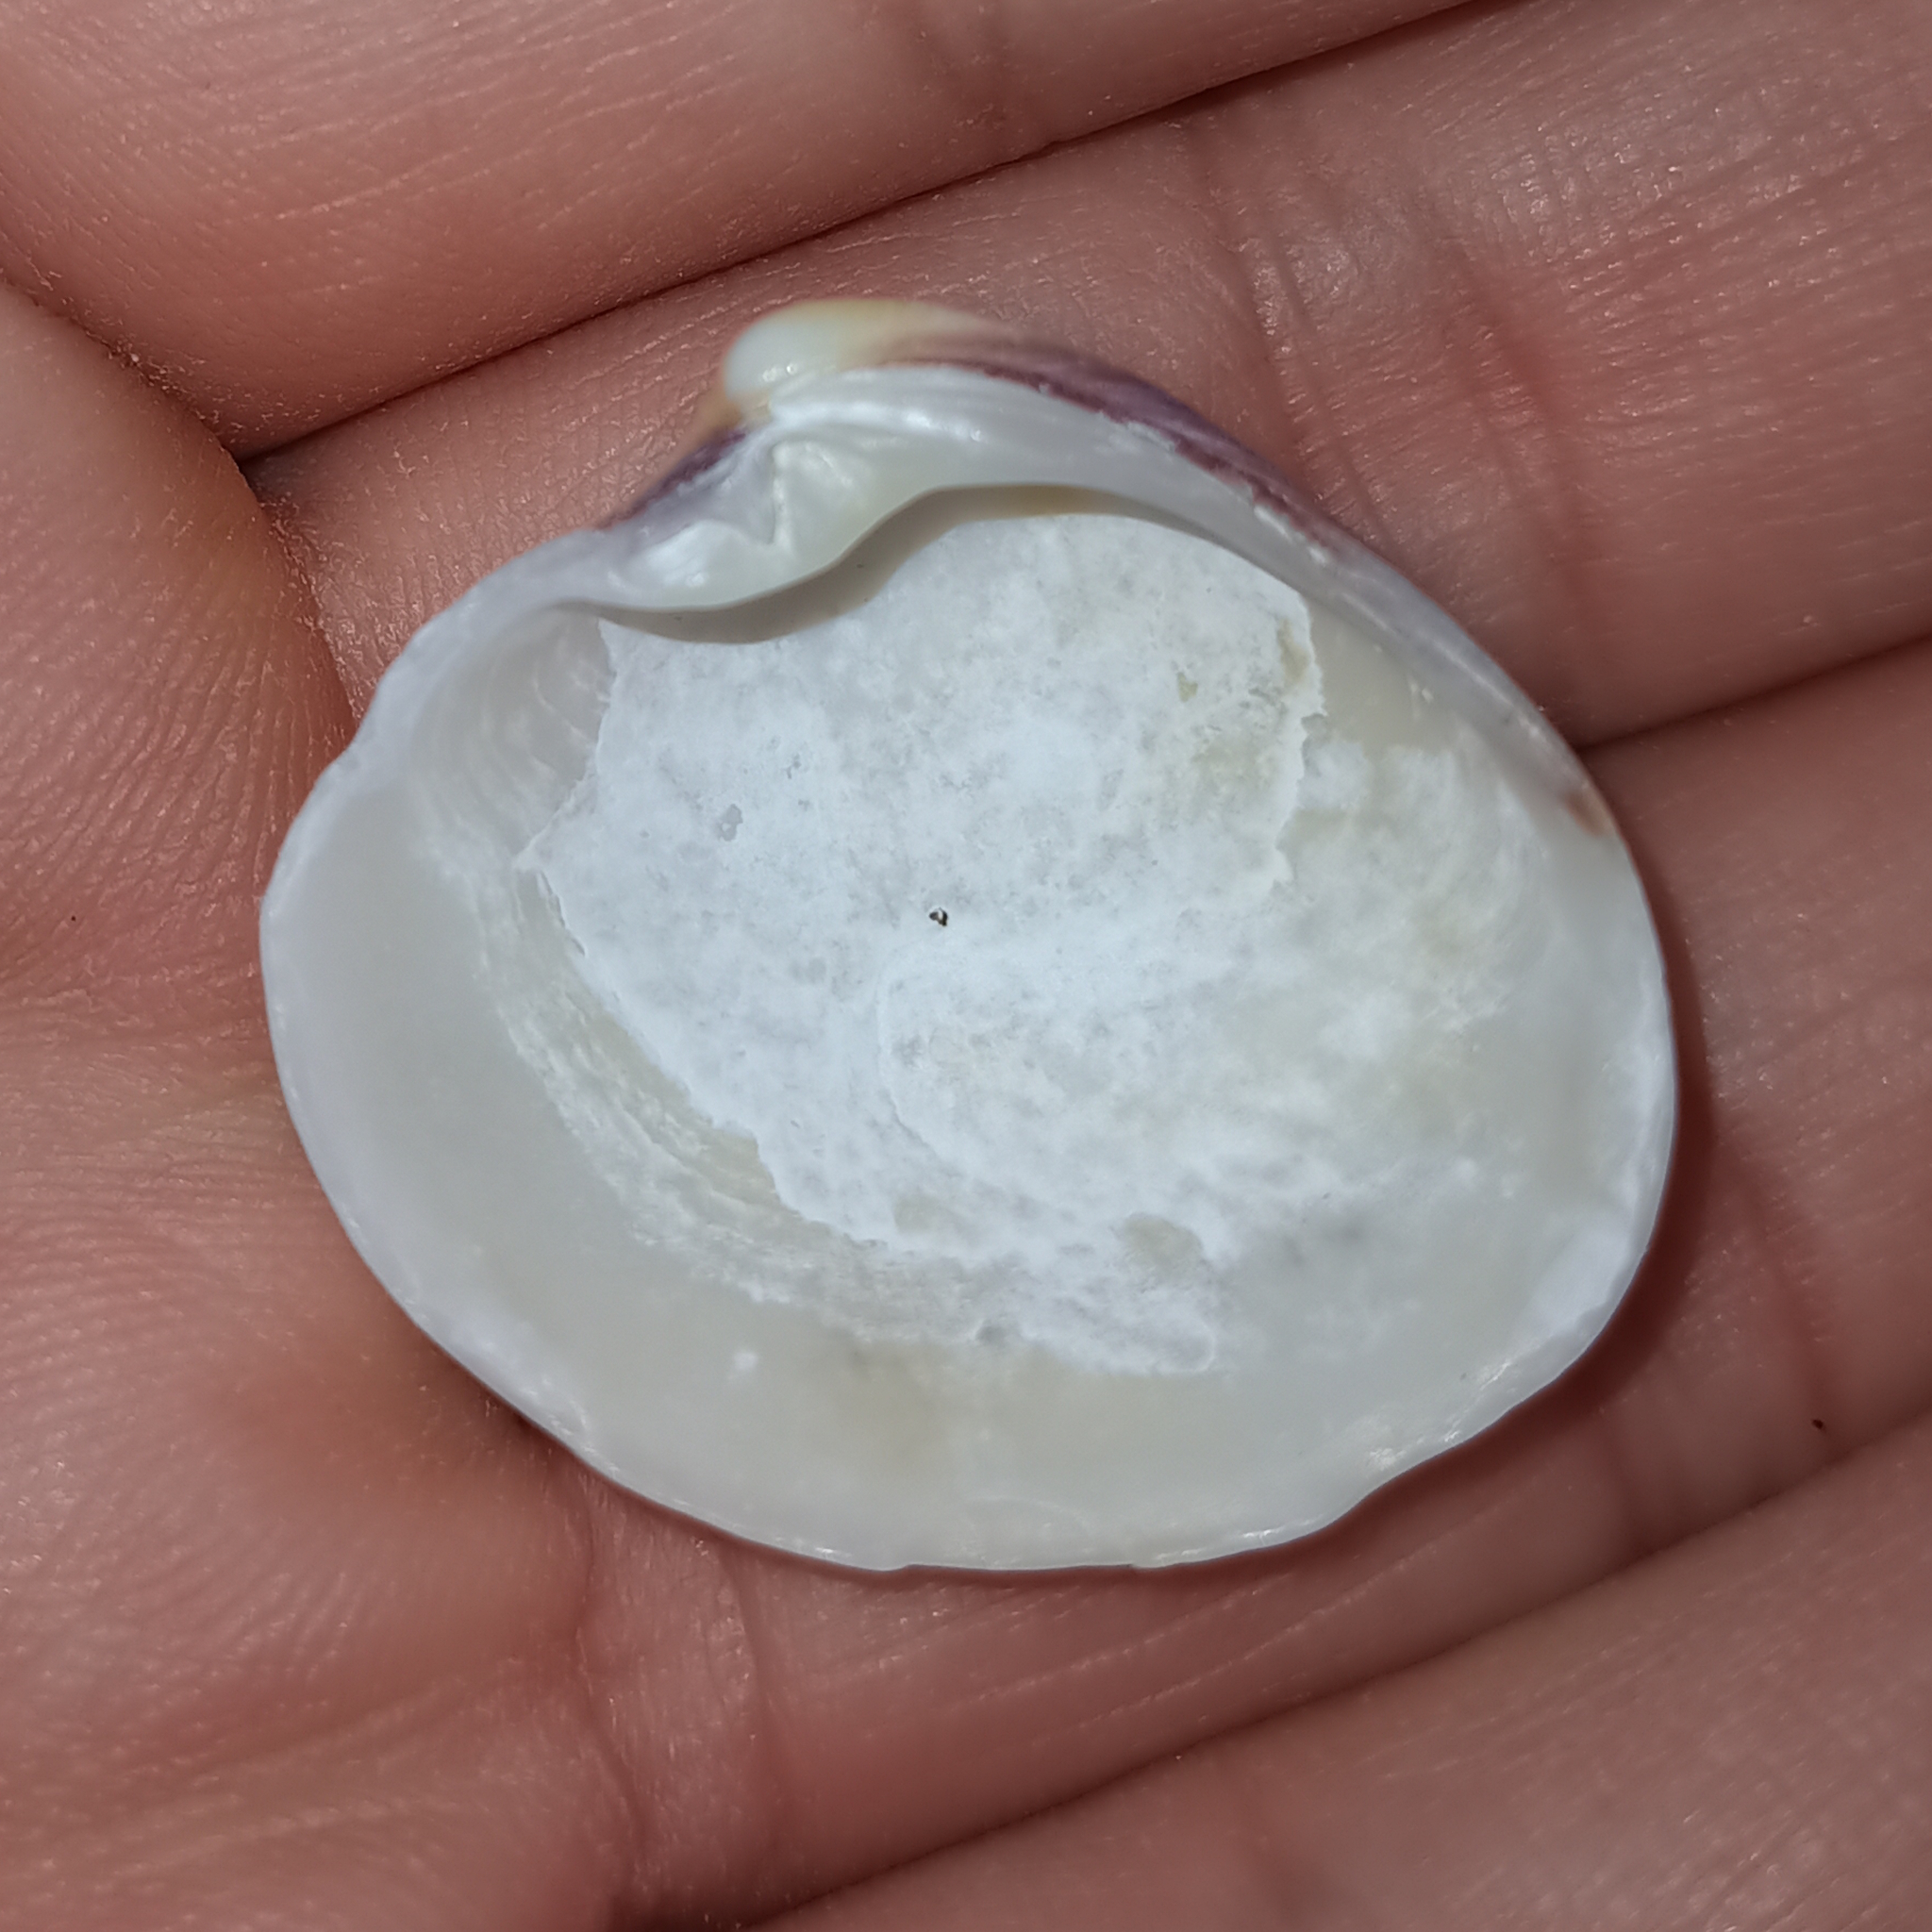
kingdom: Animalia
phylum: Mollusca
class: Bivalvia
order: Venerida
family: Veneridae
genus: Lamelliconcha
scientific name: Lamelliconcha circinata
